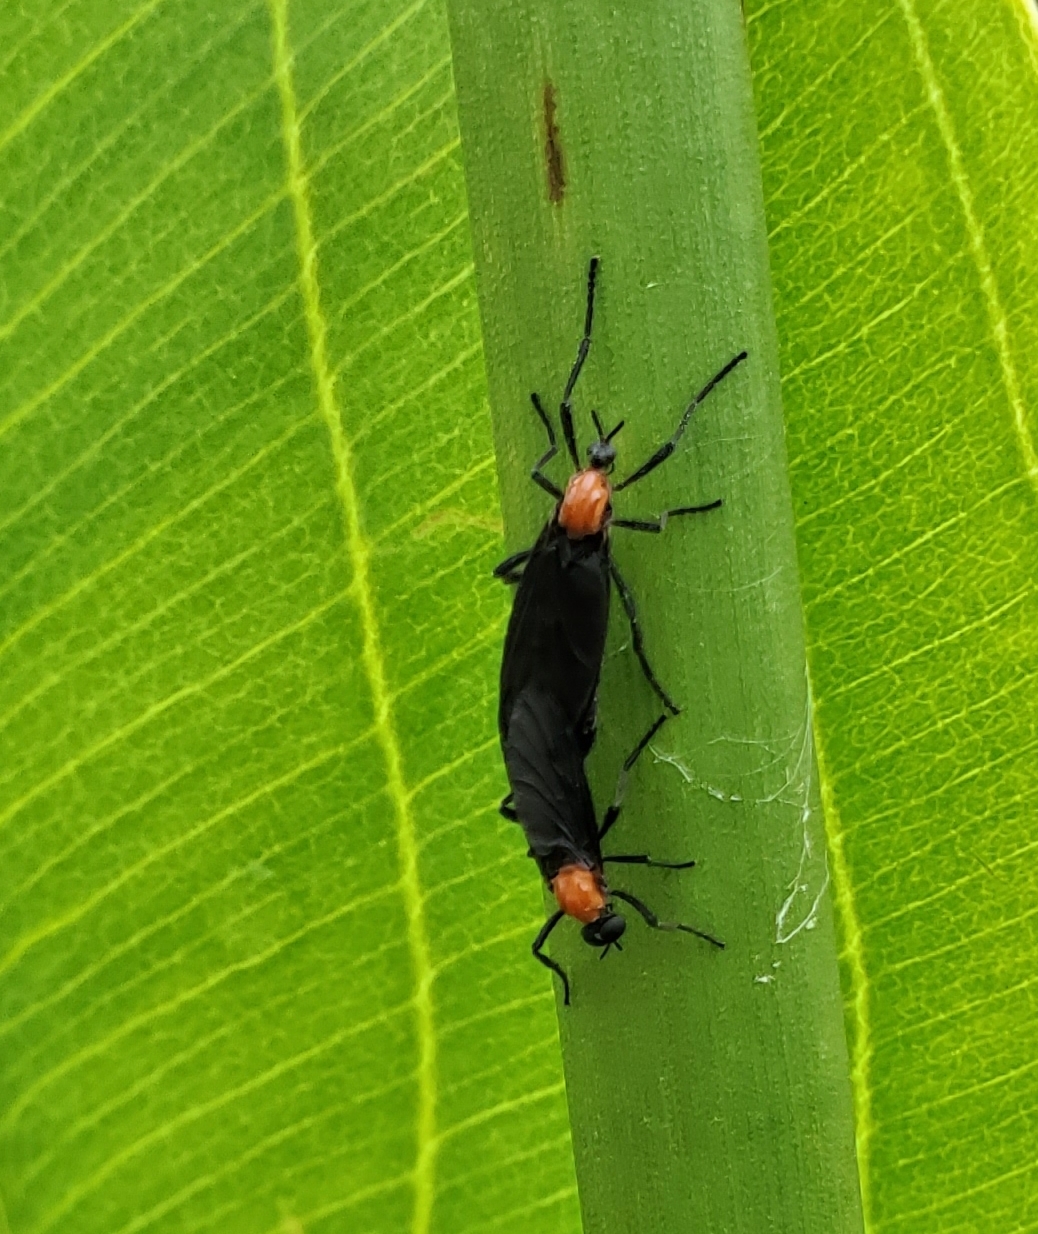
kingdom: Animalia
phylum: Arthropoda
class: Insecta
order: Diptera
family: Bibionidae
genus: Plecia
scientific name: Plecia nearctica
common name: March fly
